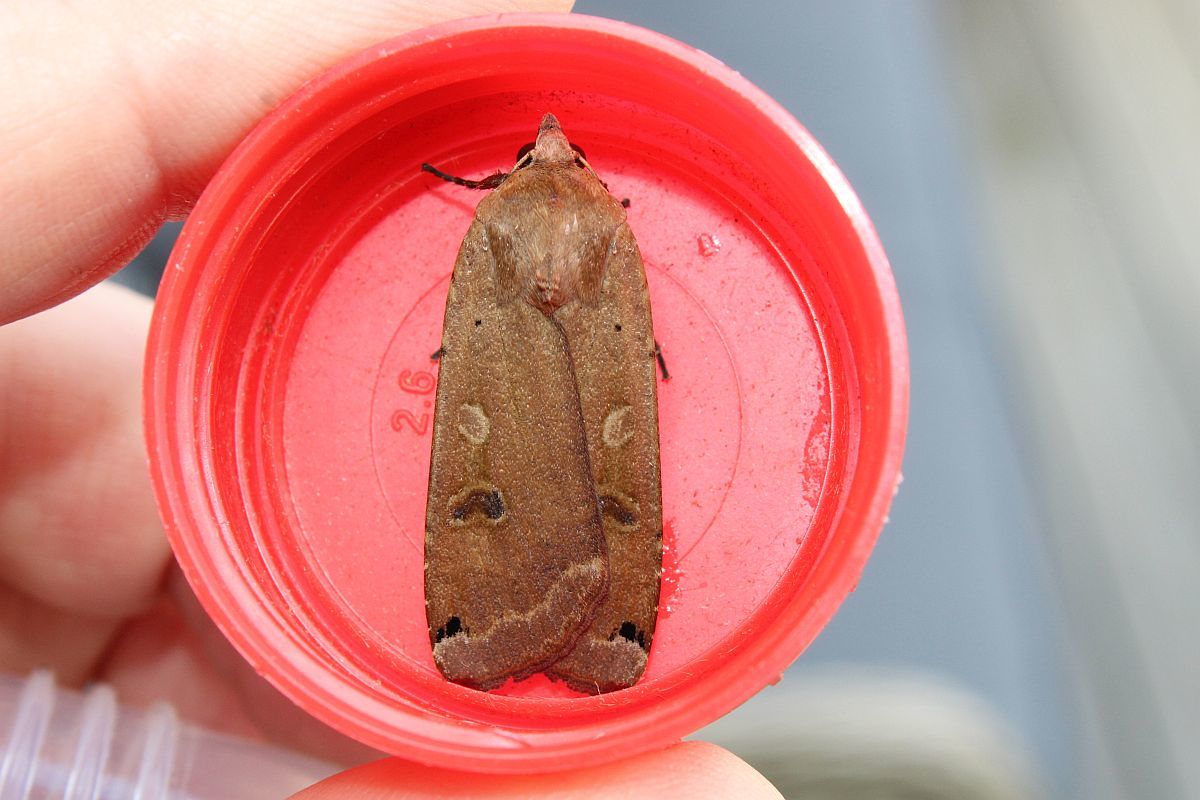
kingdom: Animalia
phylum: Arthropoda
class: Insecta
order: Lepidoptera
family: Noctuidae
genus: Noctua
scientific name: Noctua pronuba
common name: Large yellow underwing
